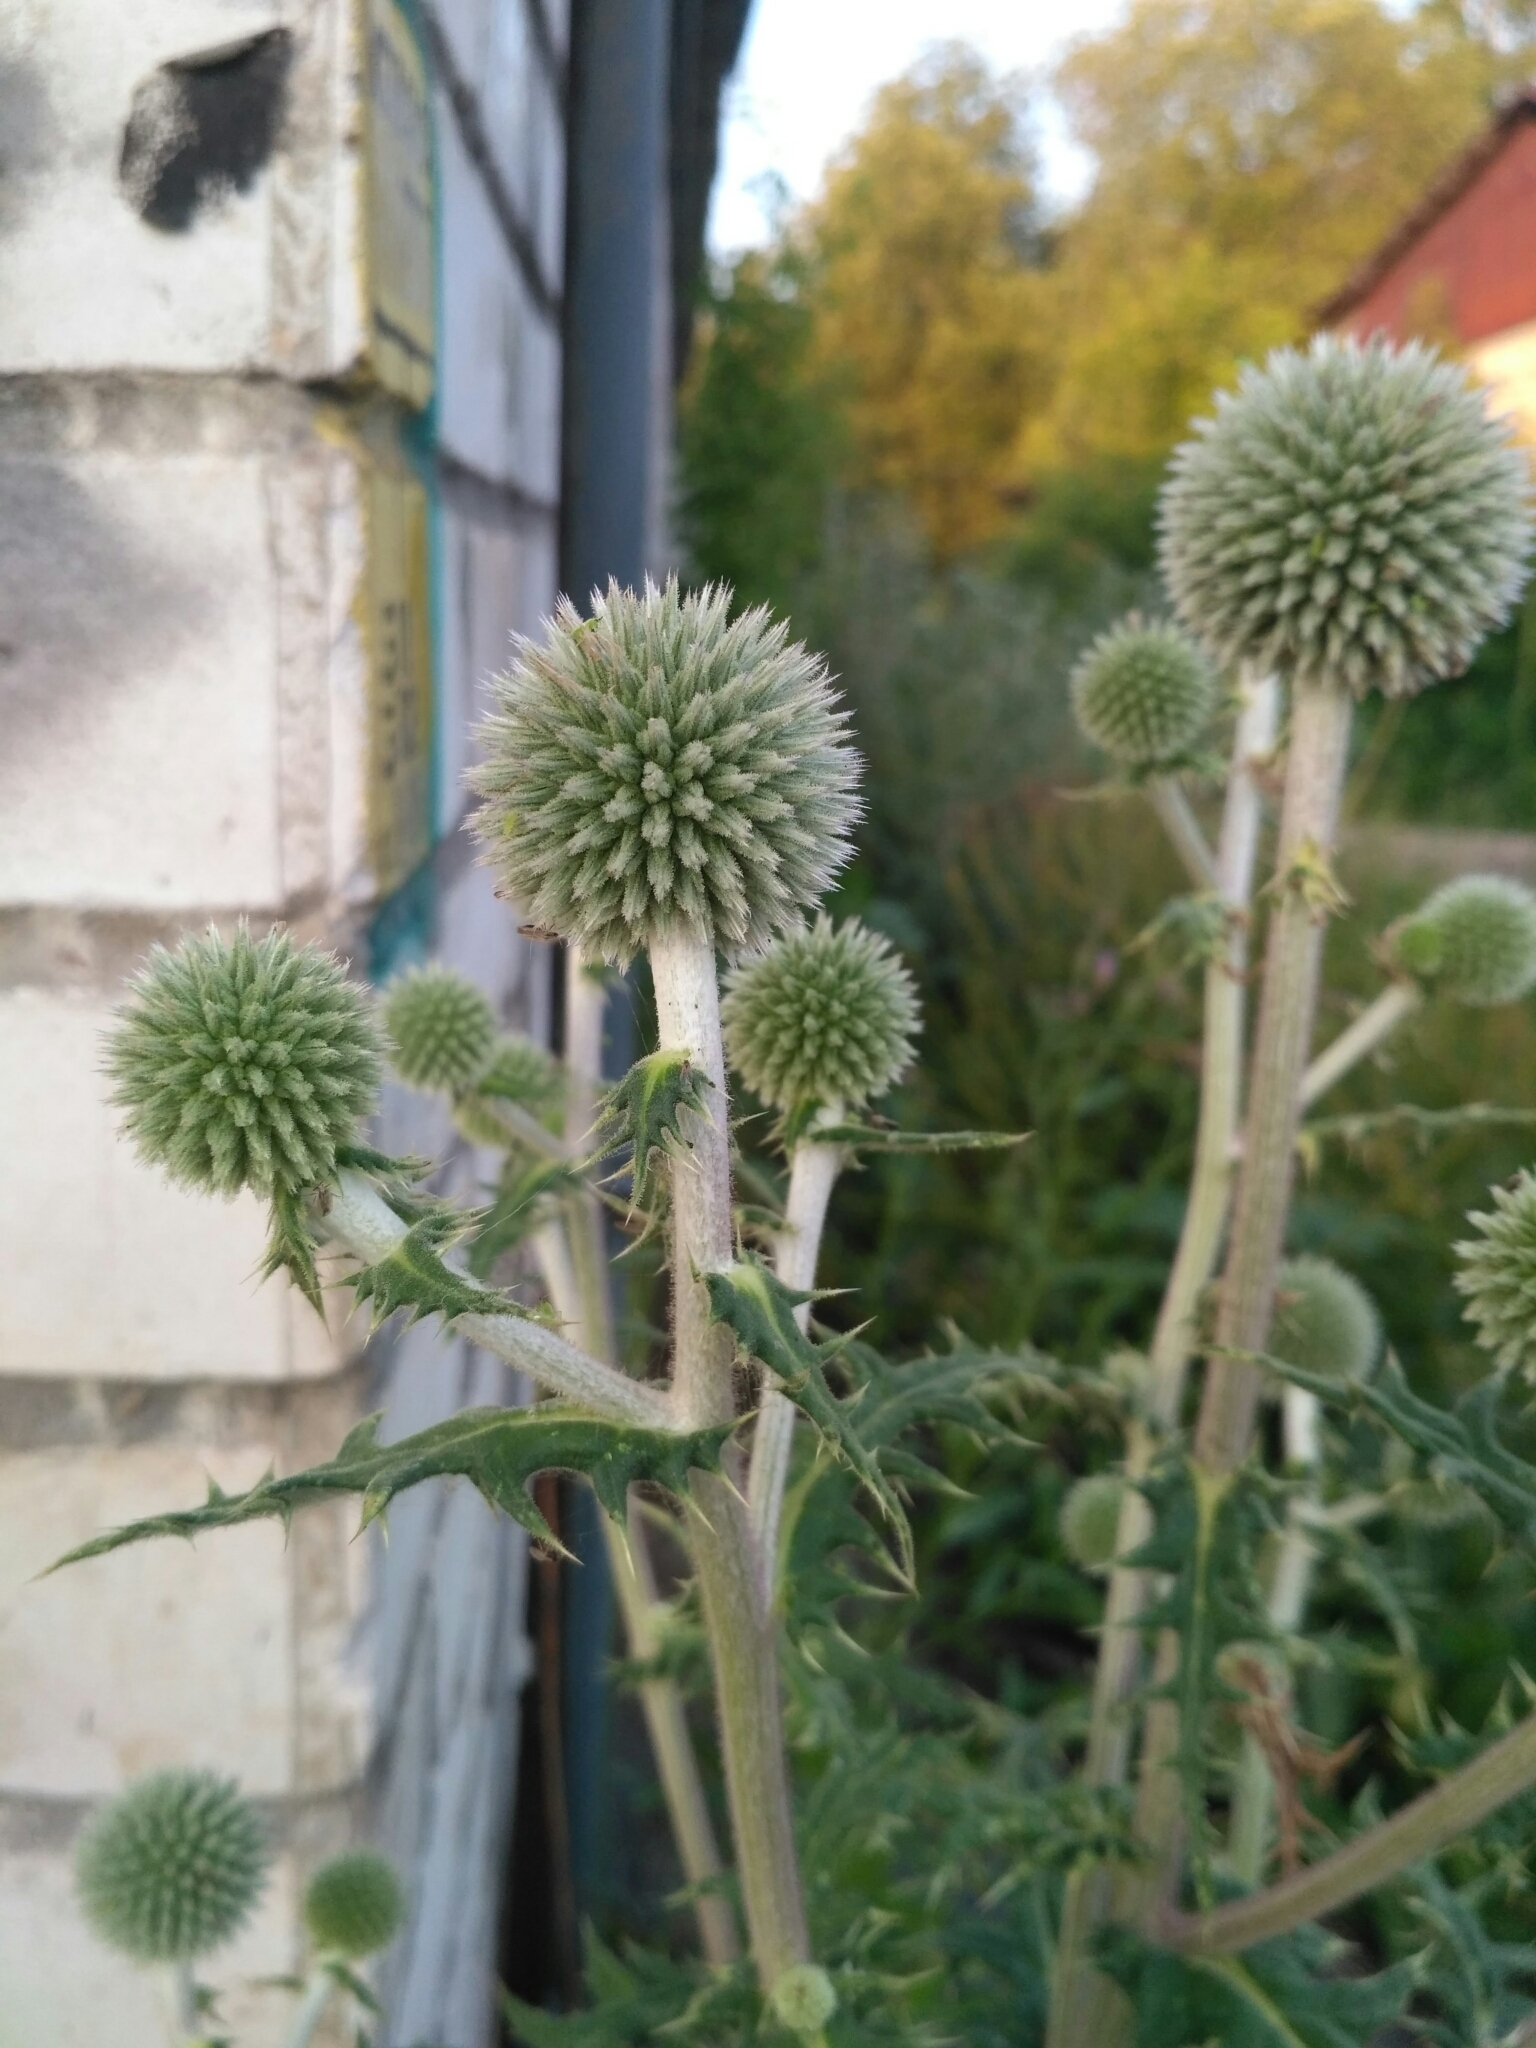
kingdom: Plantae
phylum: Tracheophyta
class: Magnoliopsida
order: Asterales
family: Asteraceae
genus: Echinops
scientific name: Echinops sphaerocephalus
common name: Glandular globe-thistle
